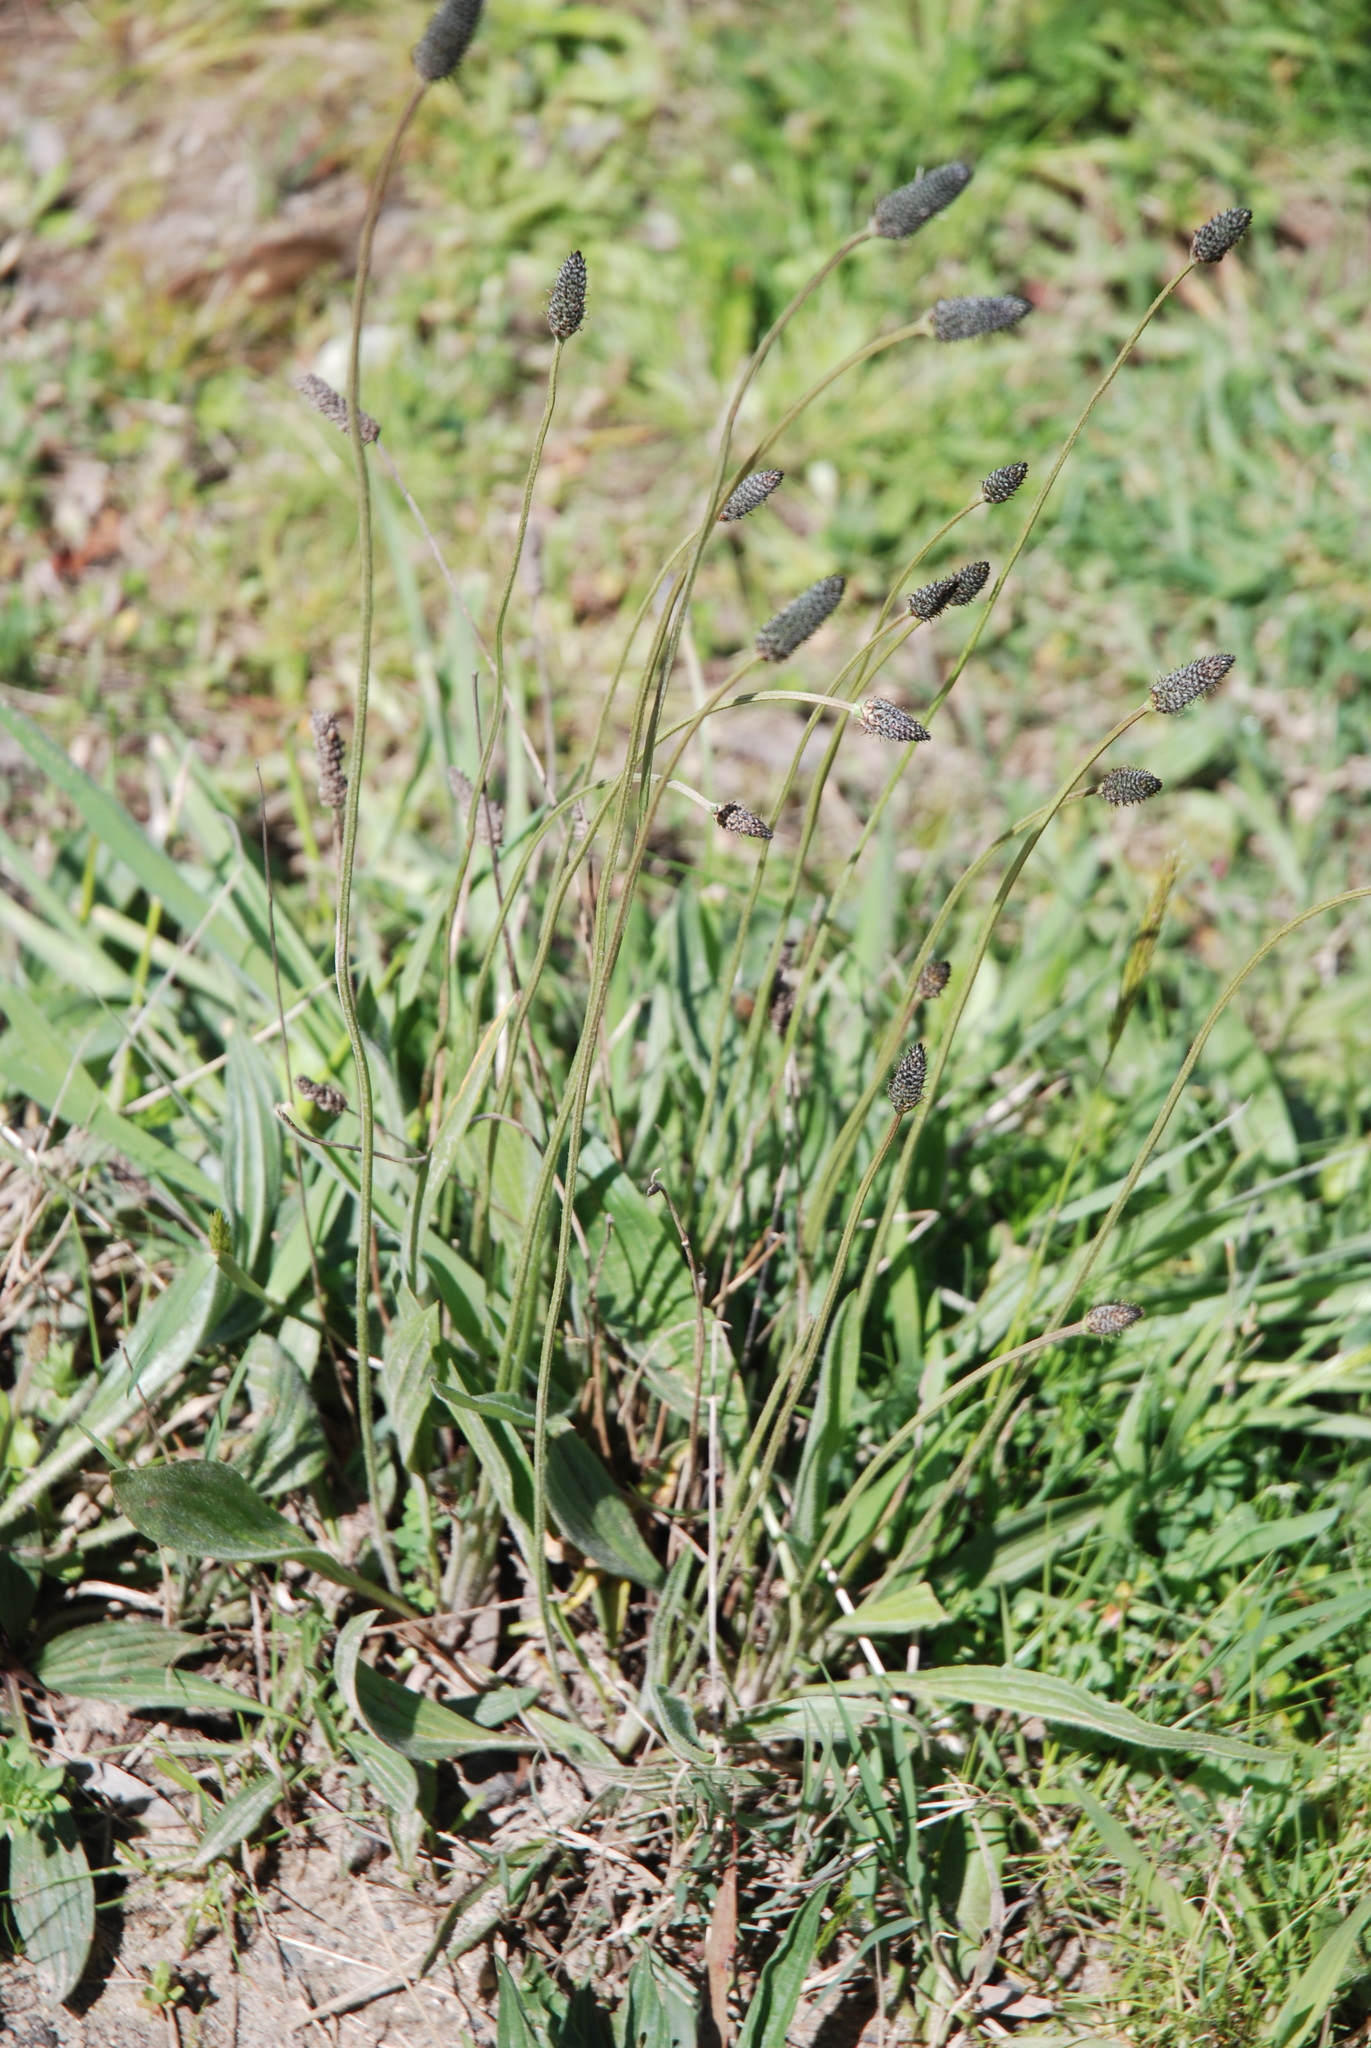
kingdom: Plantae
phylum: Tracheophyta
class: Magnoliopsida
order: Lamiales
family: Plantaginaceae
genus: Plantago
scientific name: Plantago lanceolata
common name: Ribwort plantain
